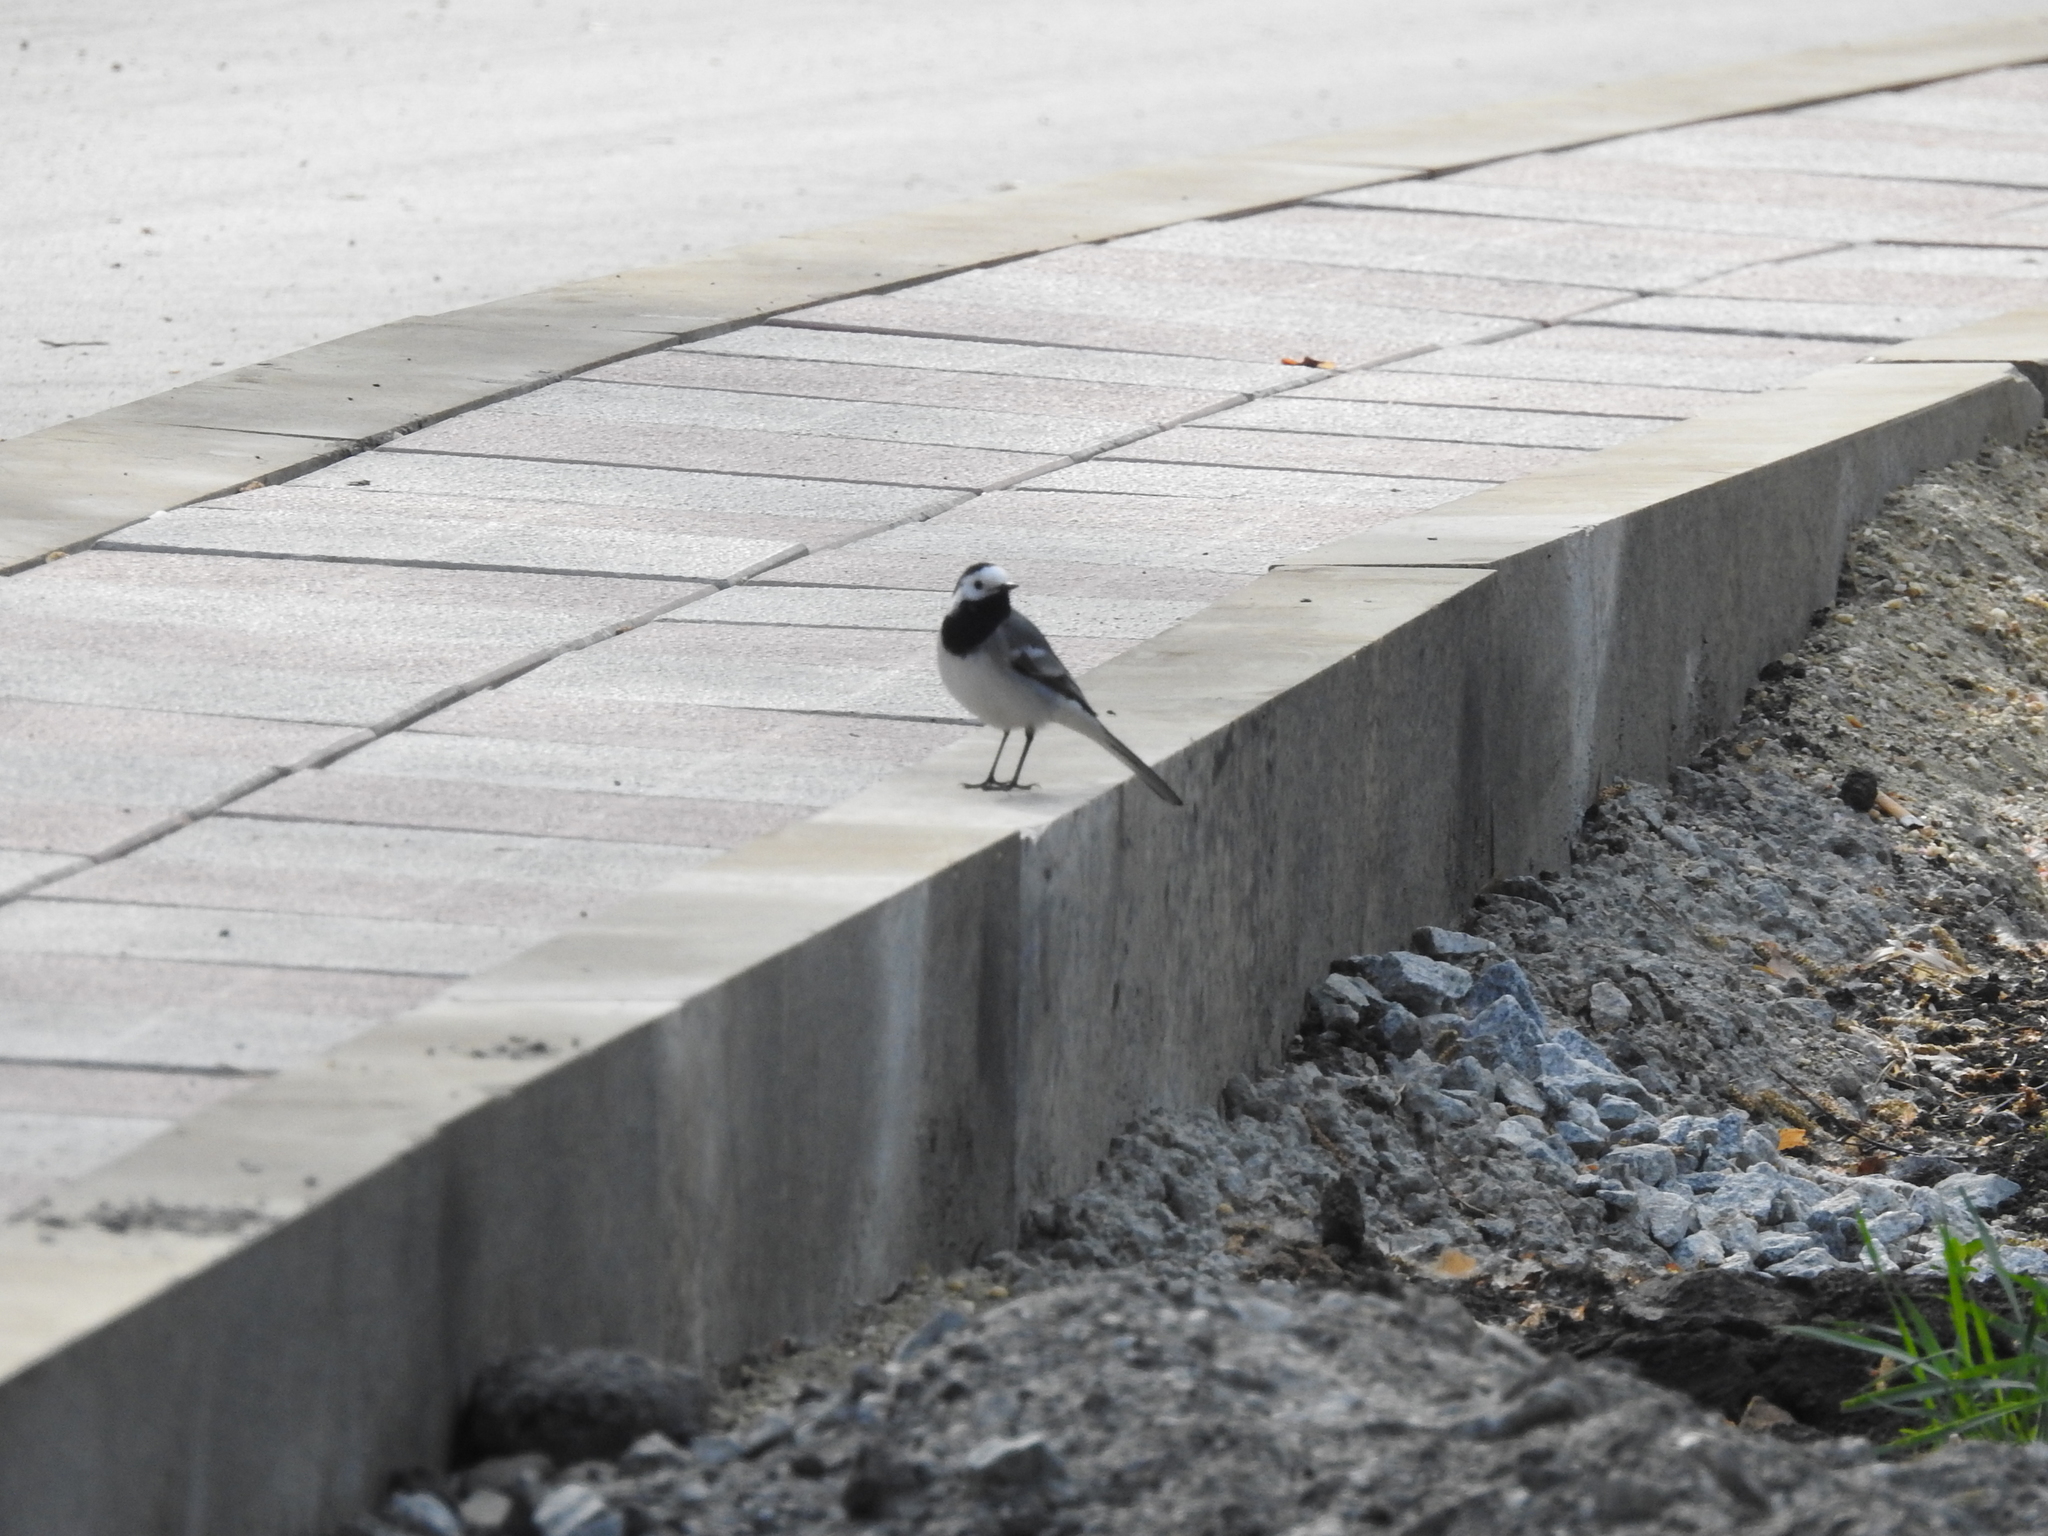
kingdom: Animalia
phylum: Chordata
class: Aves
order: Passeriformes
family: Motacillidae
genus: Motacilla
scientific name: Motacilla alba
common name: White wagtail
